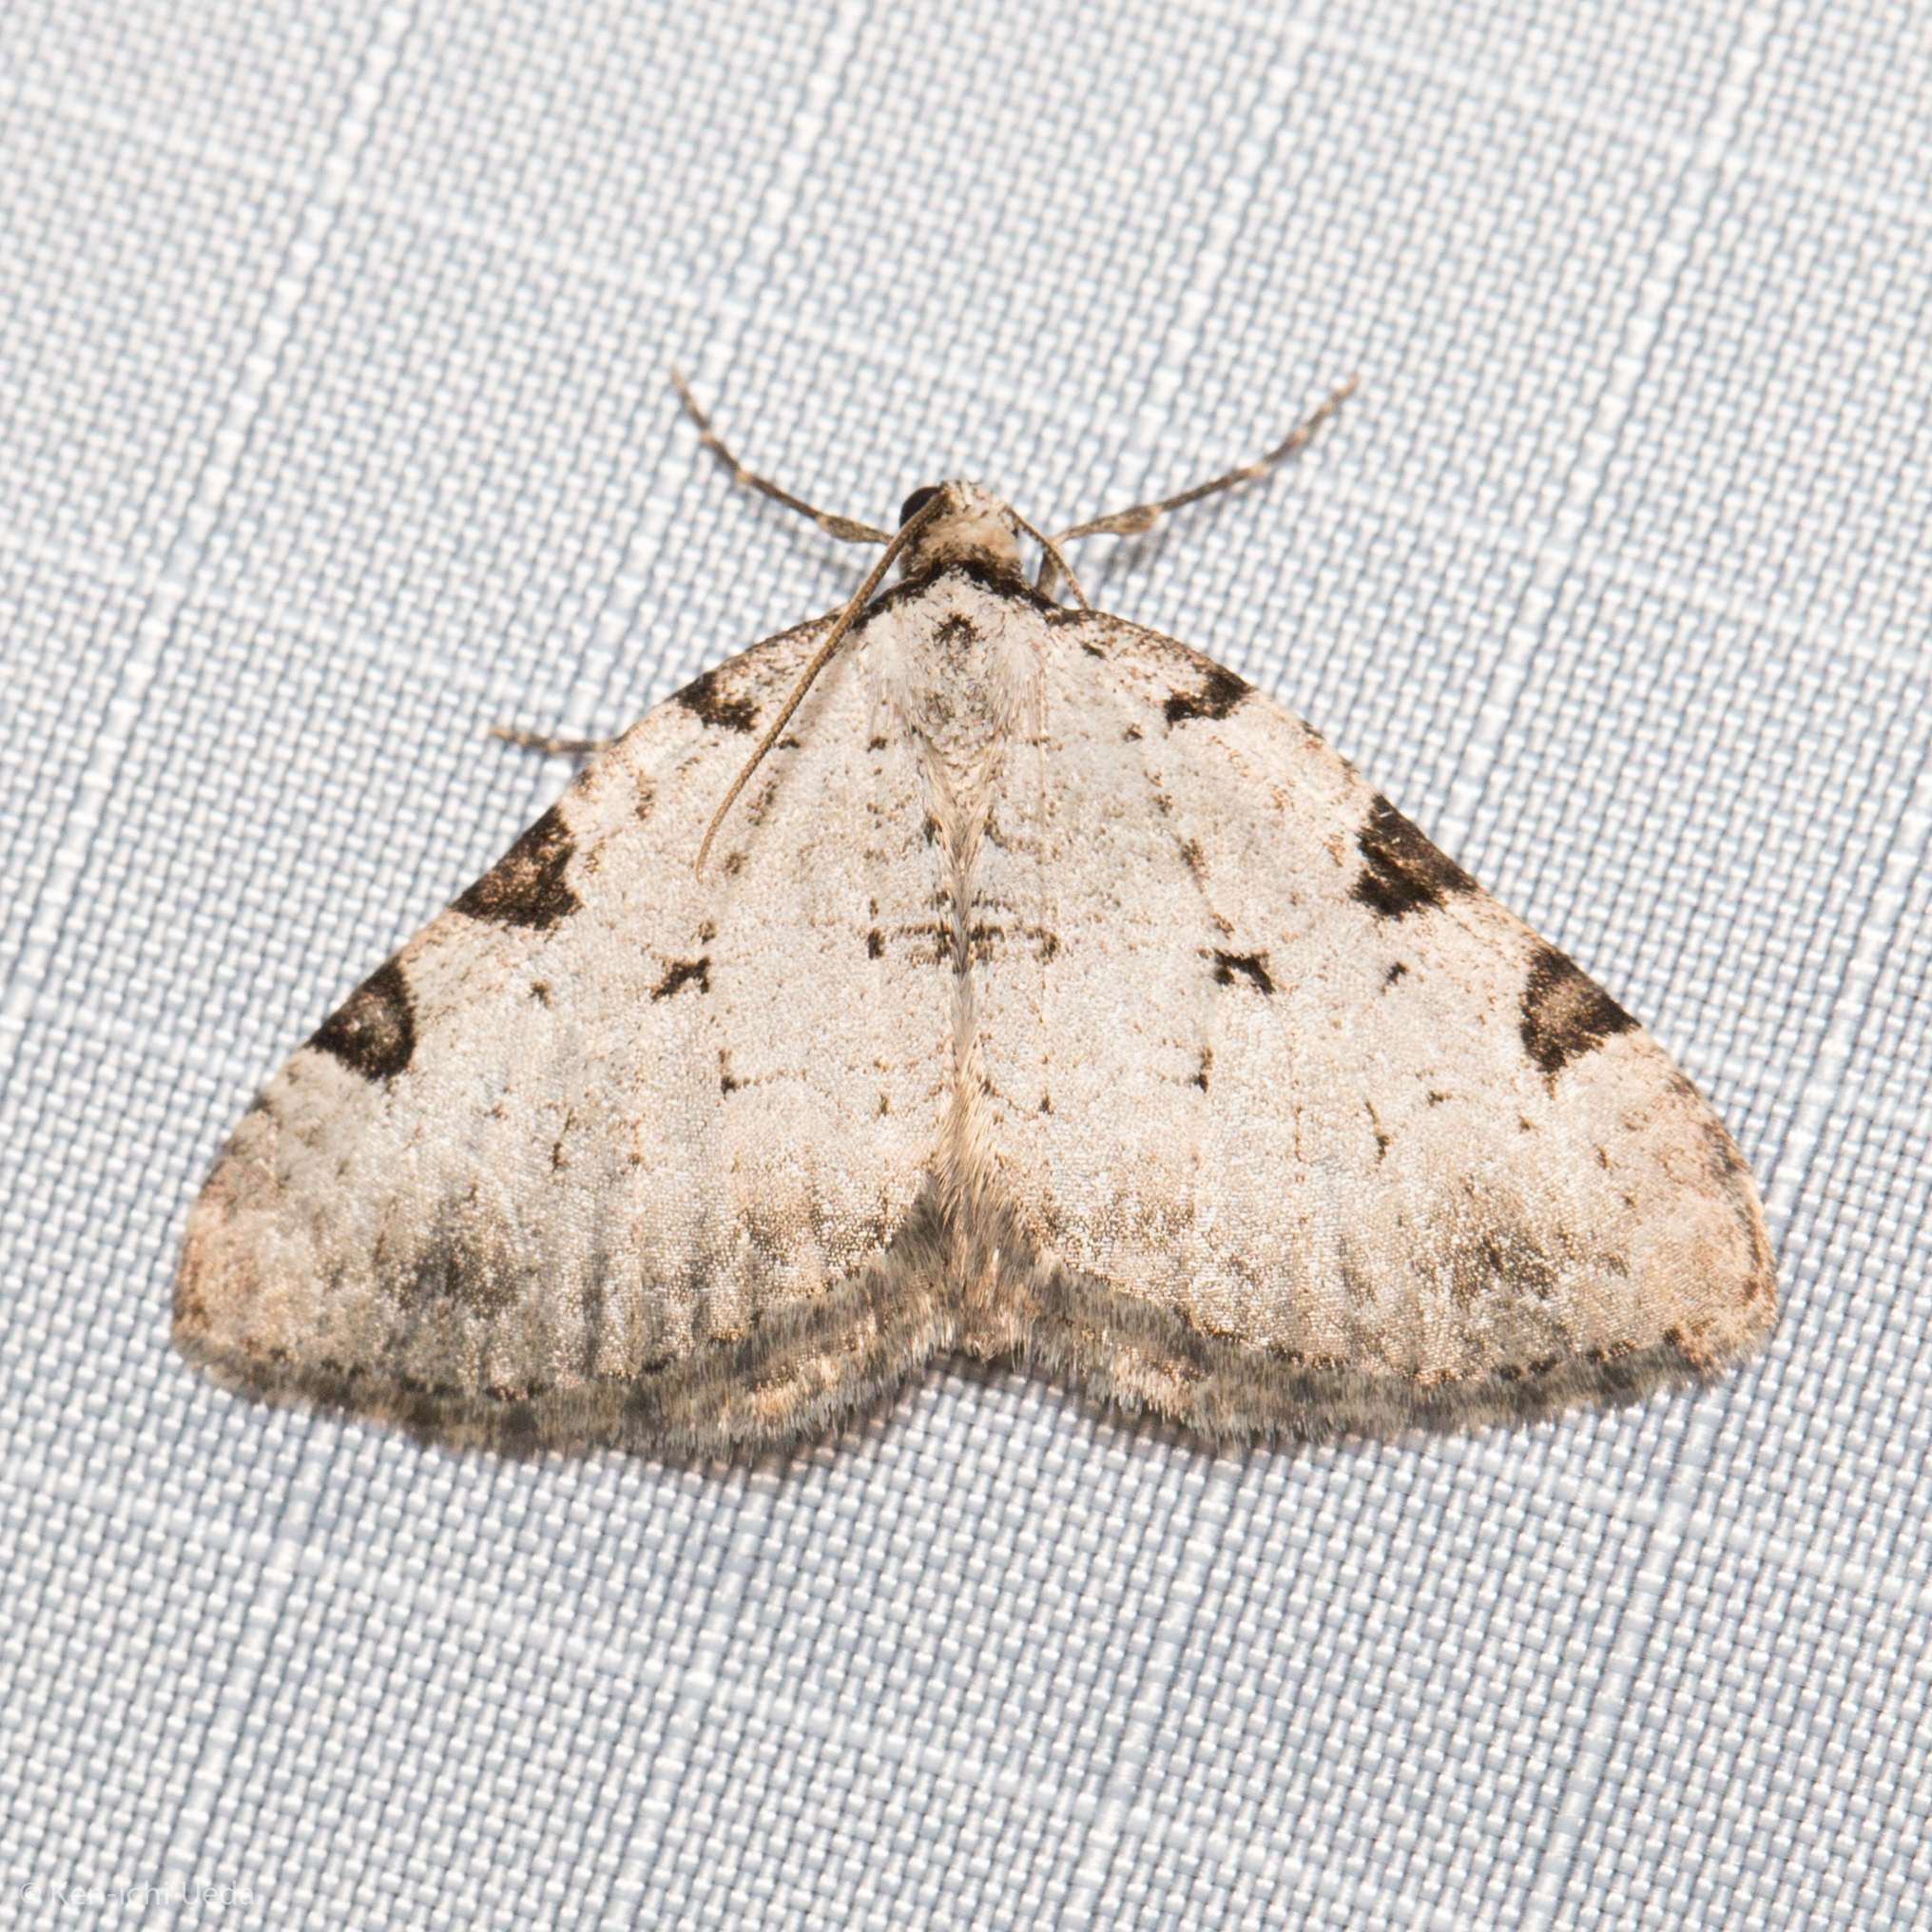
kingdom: Animalia
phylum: Arthropoda
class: Insecta
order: Lepidoptera
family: Geometridae
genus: Perizoma
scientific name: Perizoma costiguttata
